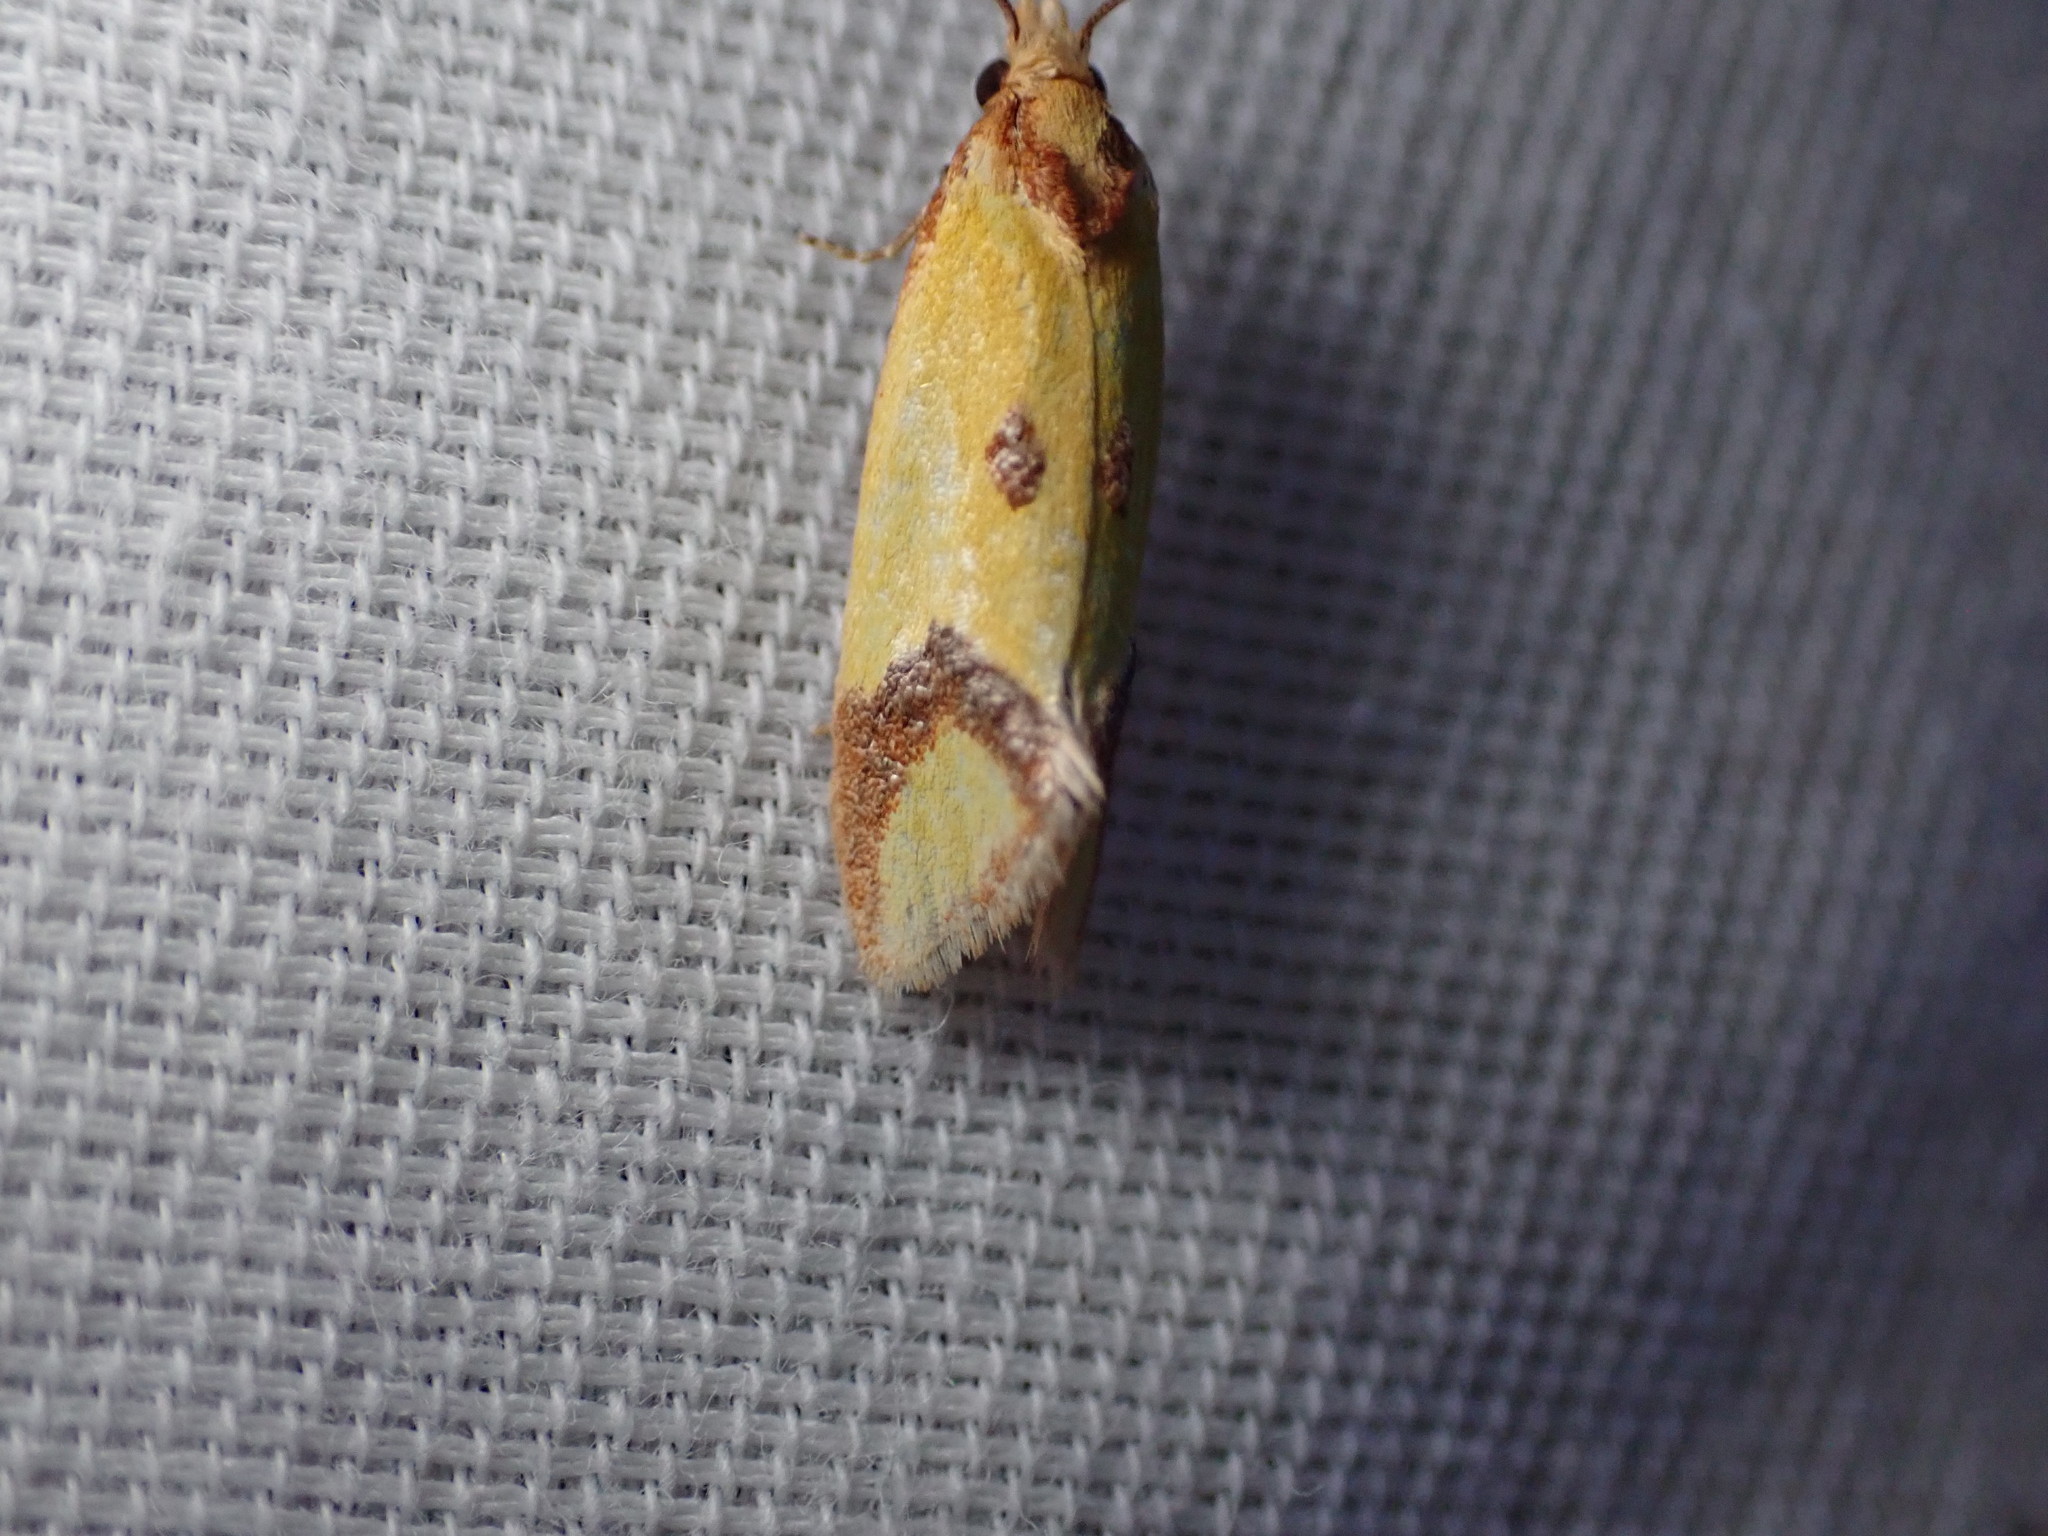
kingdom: Animalia
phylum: Arthropoda
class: Insecta
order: Lepidoptera
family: Tortricidae
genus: Agapeta
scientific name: Agapeta zoegana
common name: Sulfur knapweed root moth
